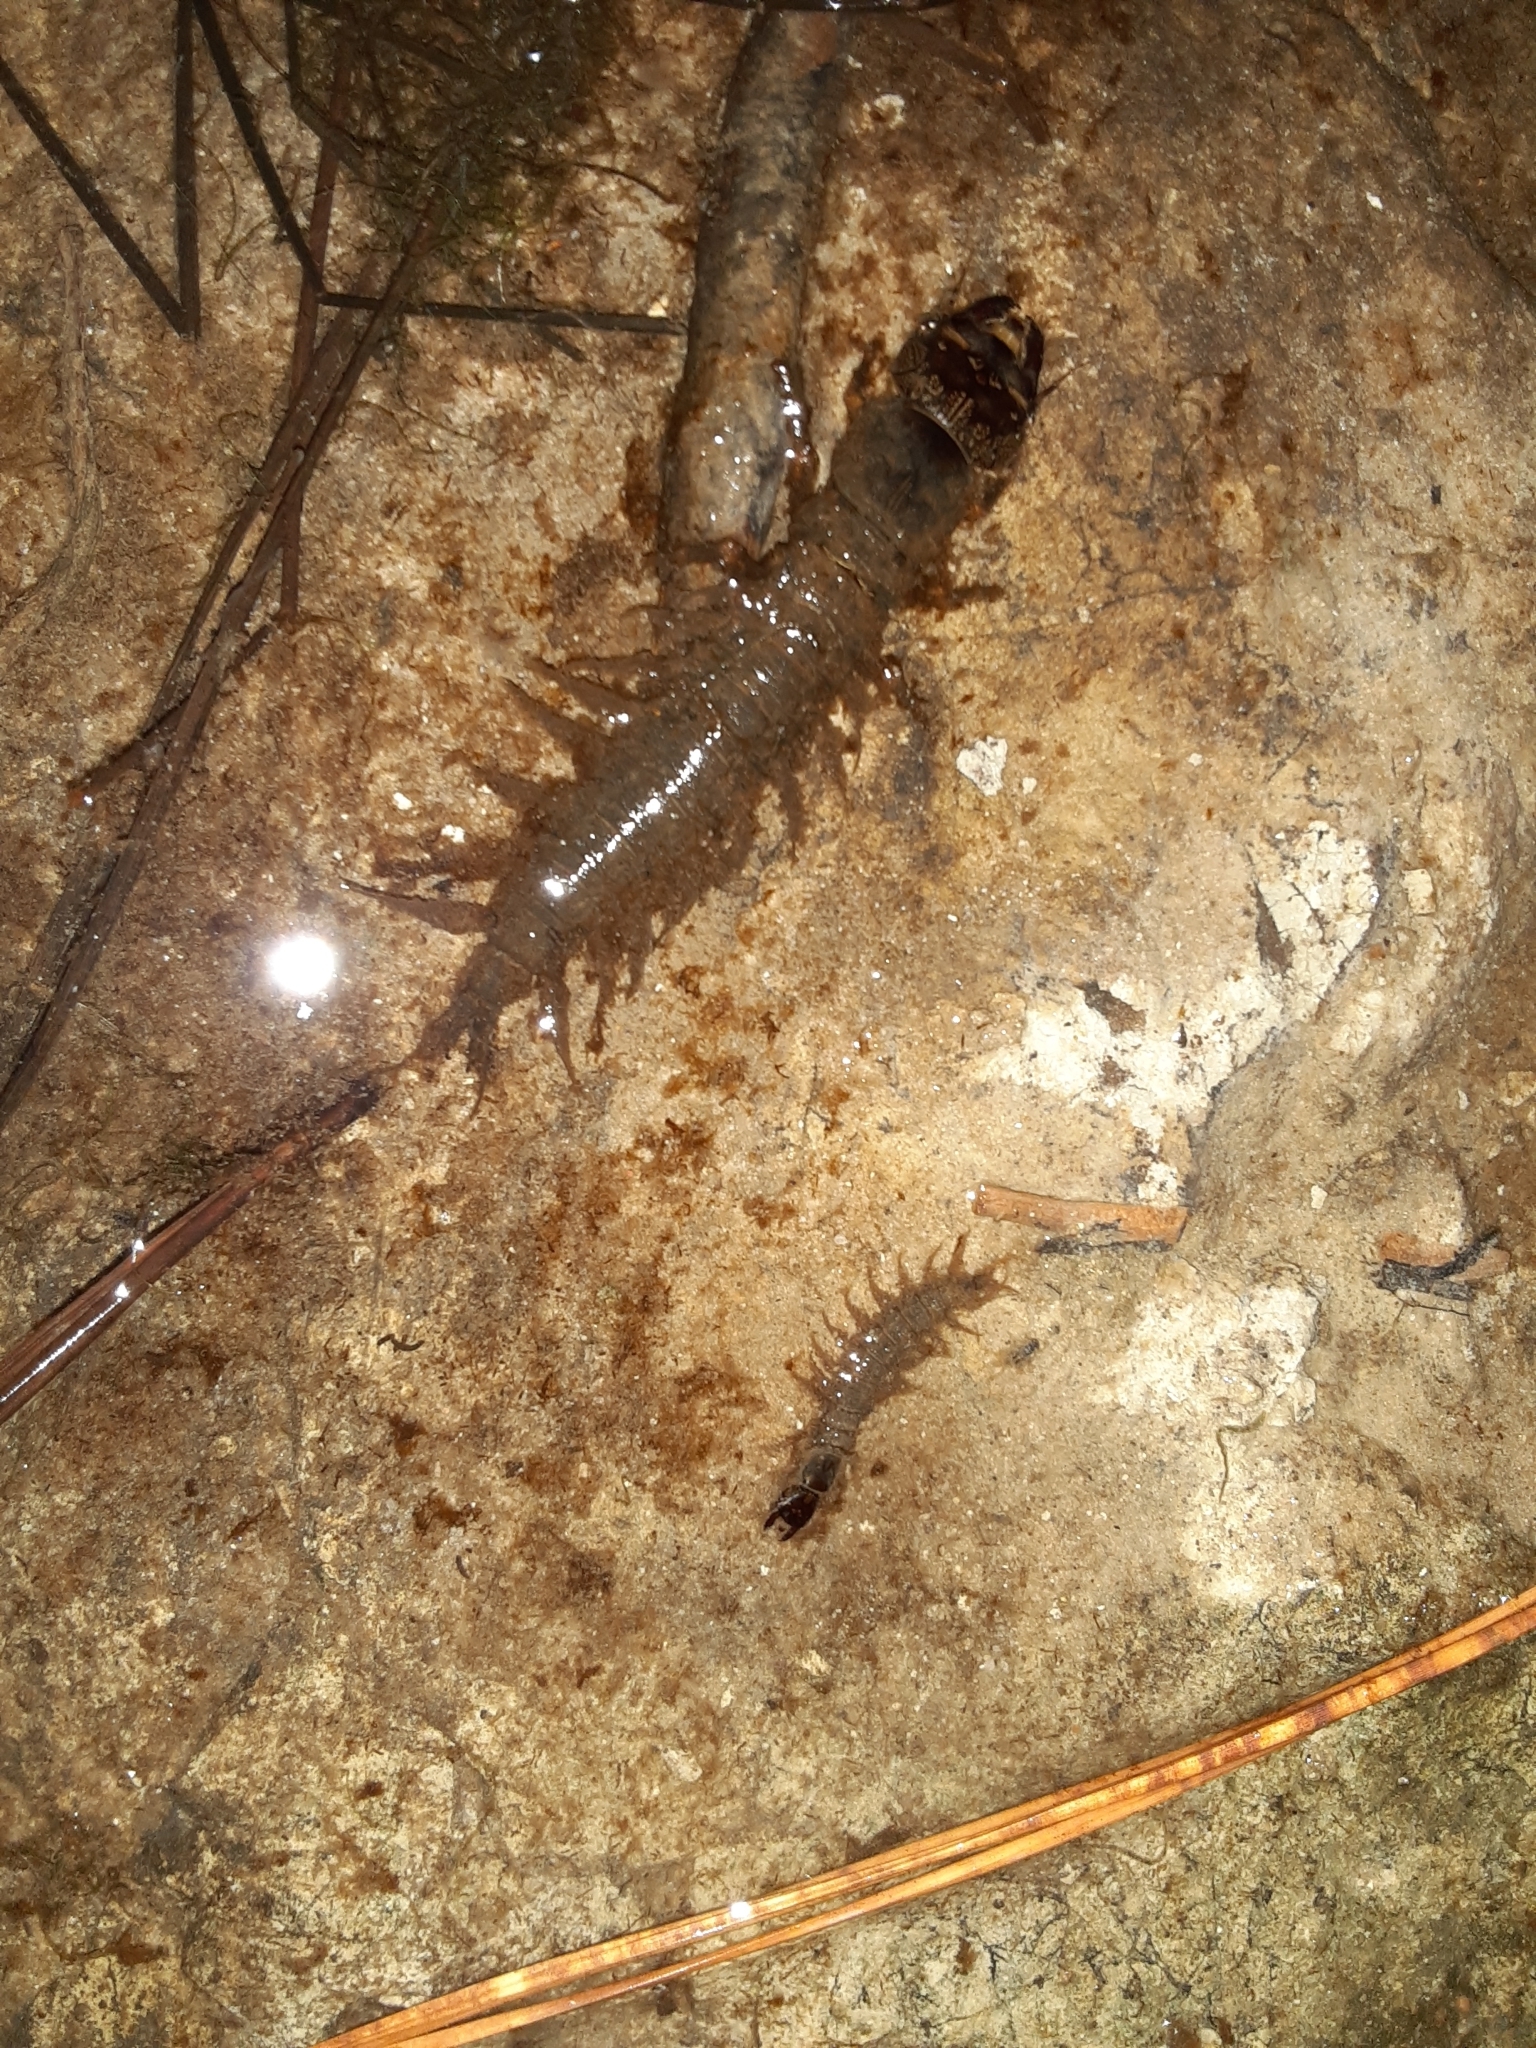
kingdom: Animalia
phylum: Arthropoda
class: Insecta
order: Megaloptera
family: Corydalidae
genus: Corydalus
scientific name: Corydalus cornutus
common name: Dobsonfly
